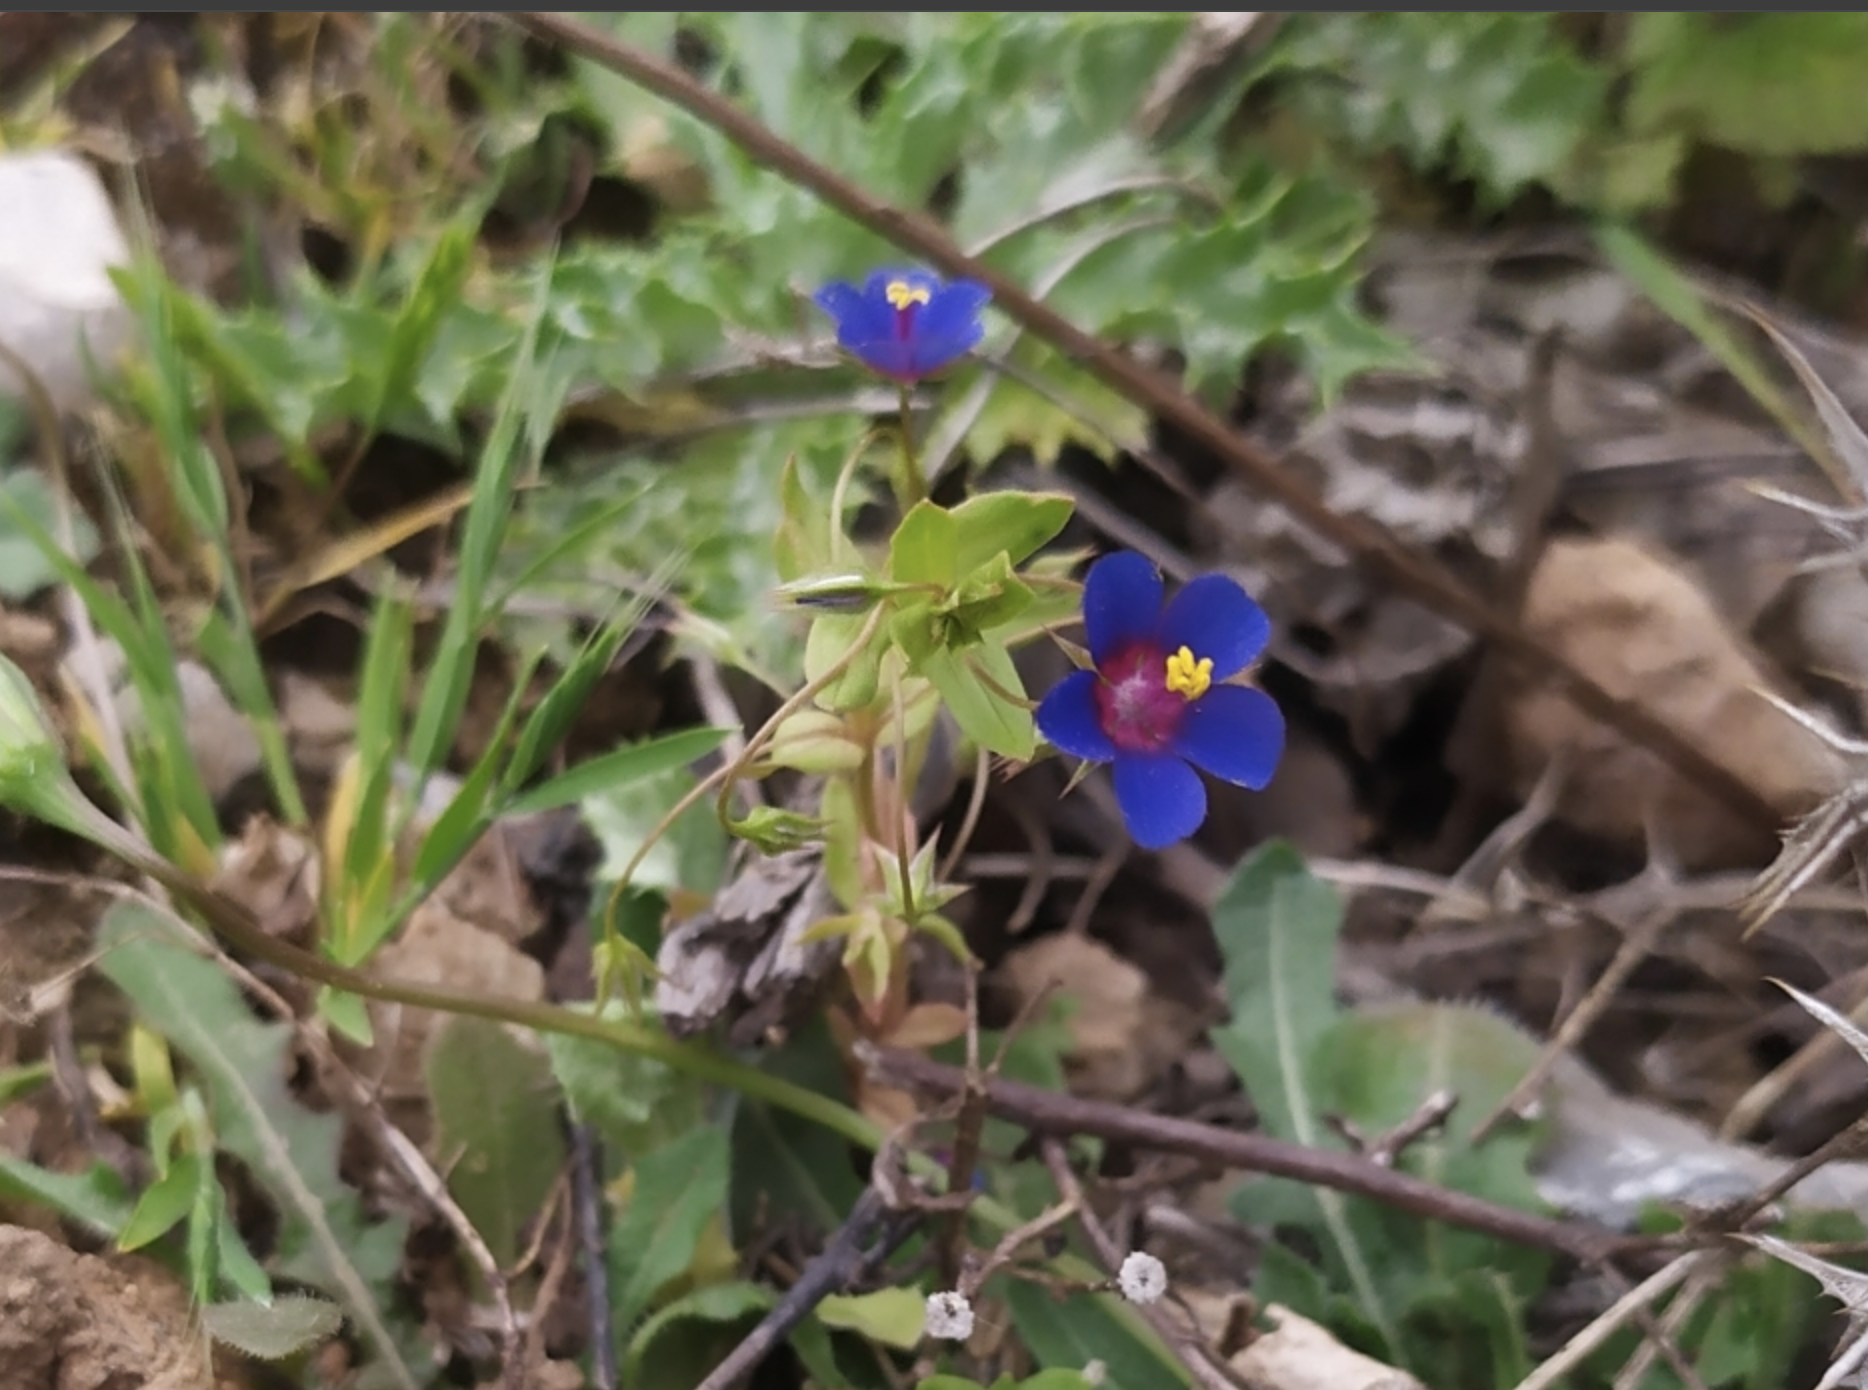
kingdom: Plantae
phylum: Tracheophyta
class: Magnoliopsida
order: Ericales
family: Primulaceae
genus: Lysimachia
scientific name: Lysimachia loeflingii
